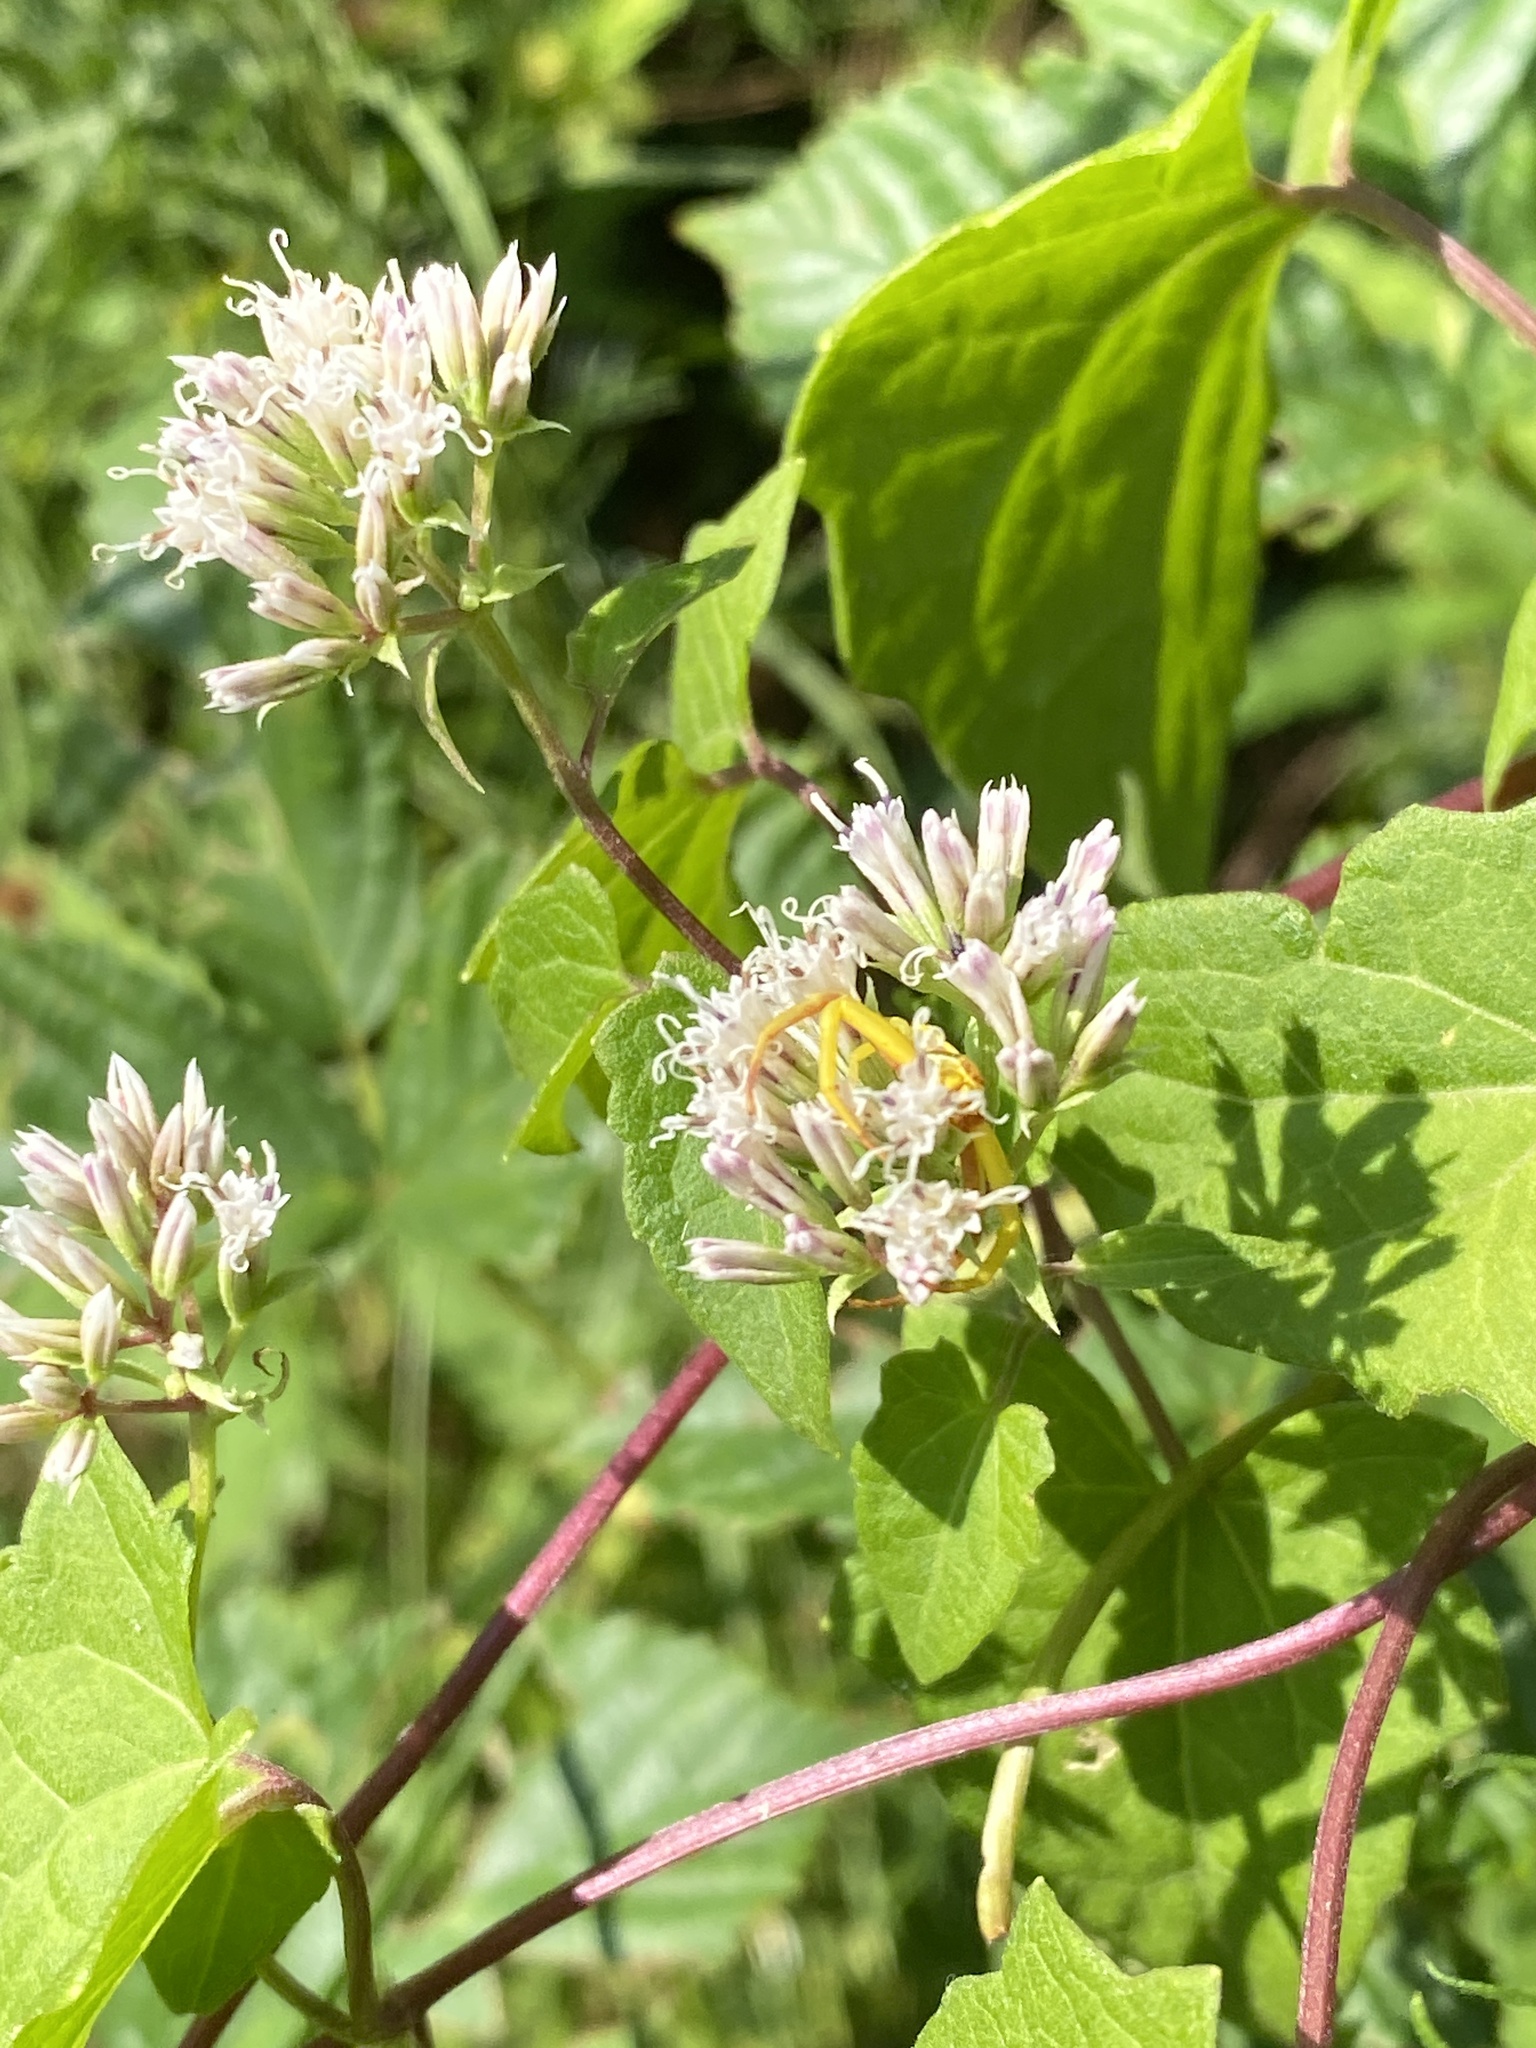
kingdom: Plantae
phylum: Tracheophyta
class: Magnoliopsida
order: Asterales
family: Asteraceae
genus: Mikania
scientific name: Mikania scandens
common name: Climbing hempvine
